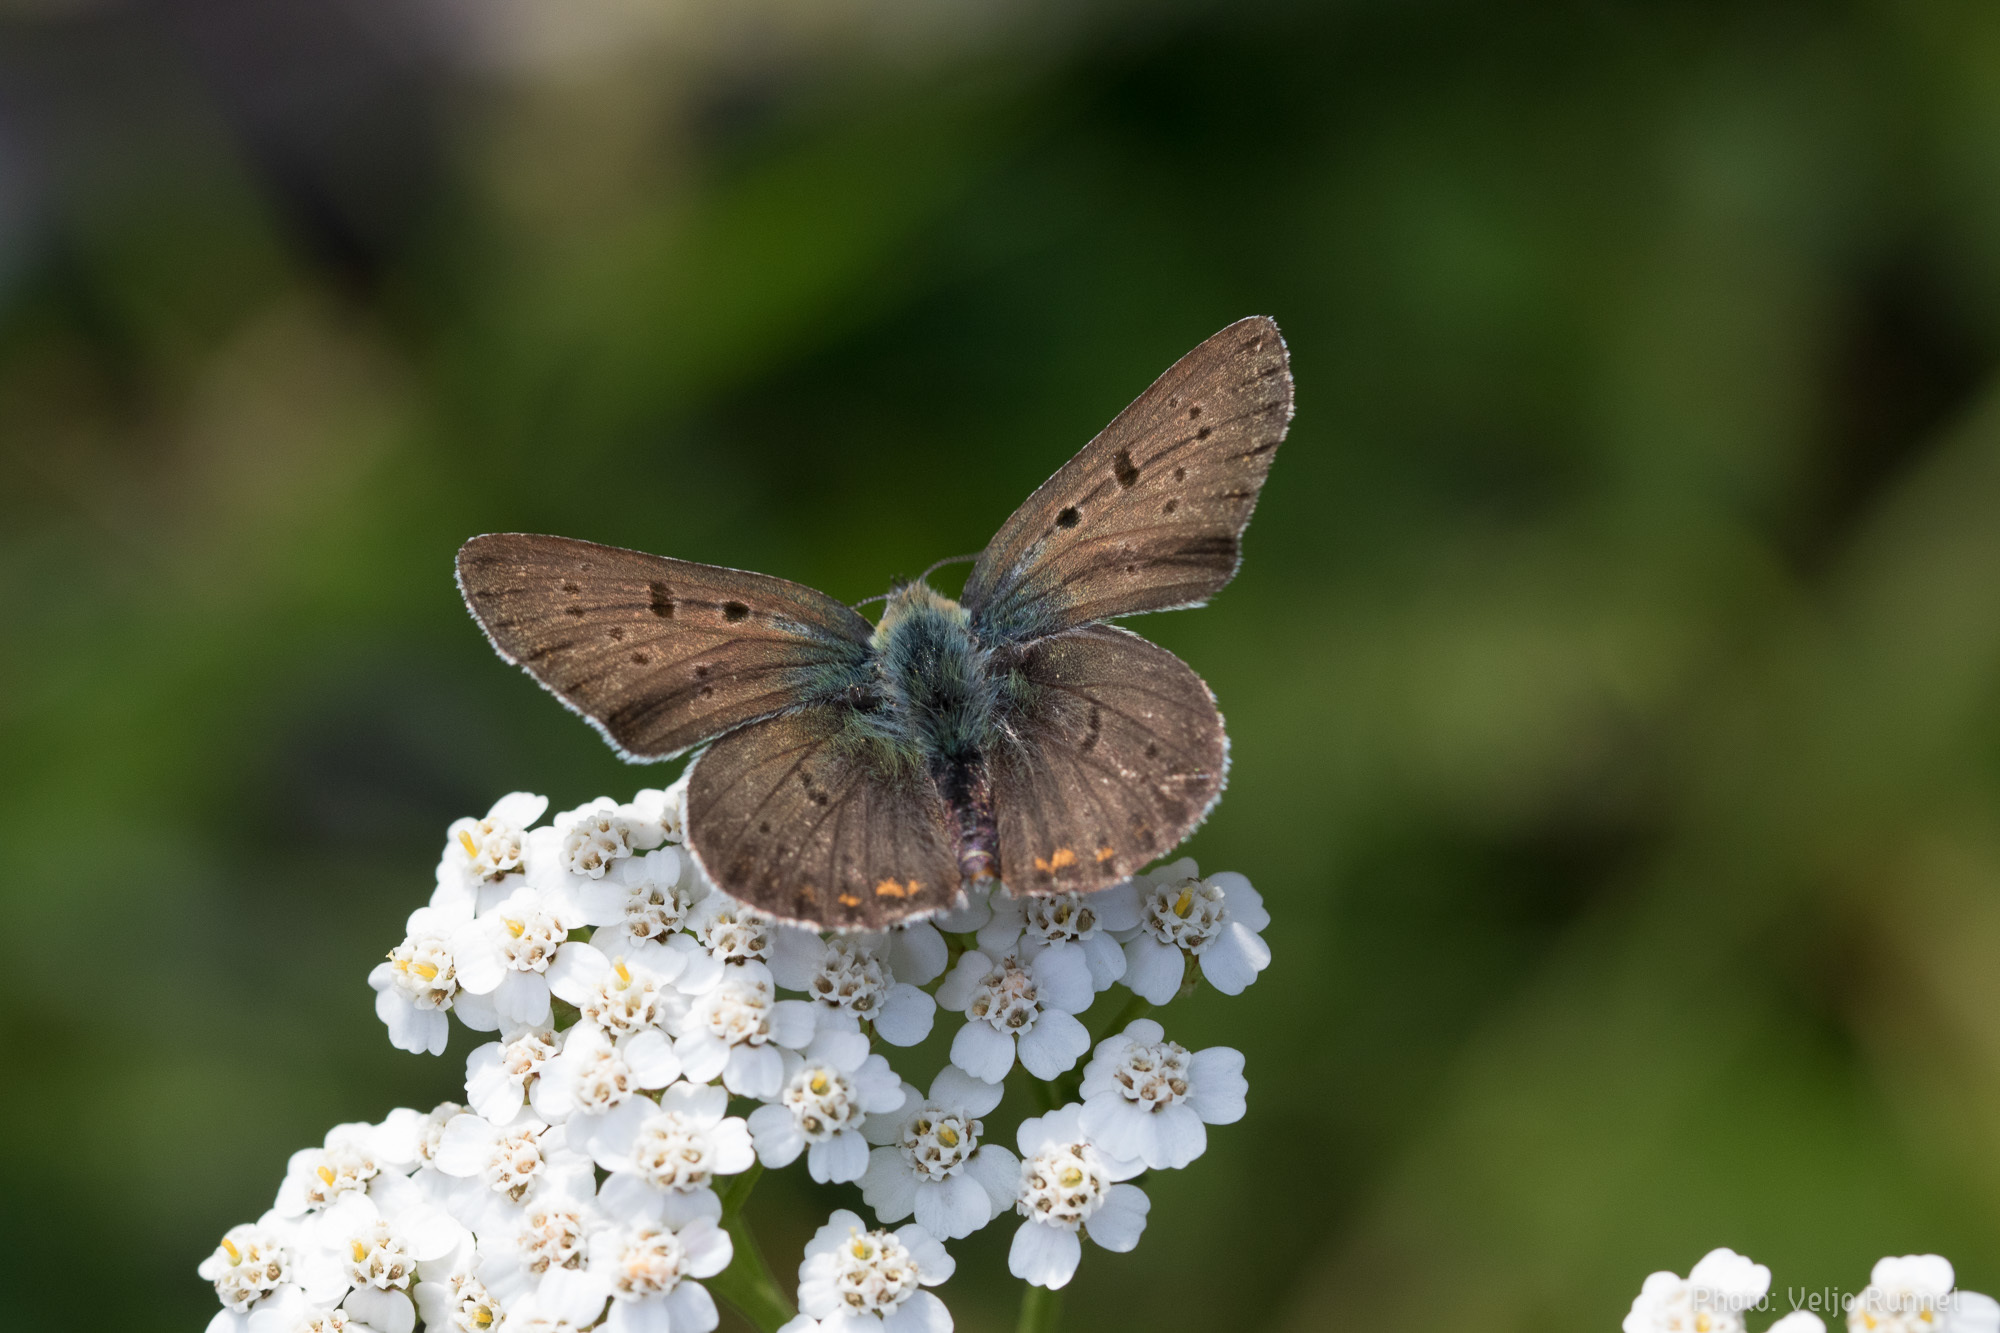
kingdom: Animalia
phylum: Arthropoda
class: Insecta
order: Lepidoptera
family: Lycaenidae
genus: Loweia
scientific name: Loweia tityrus
